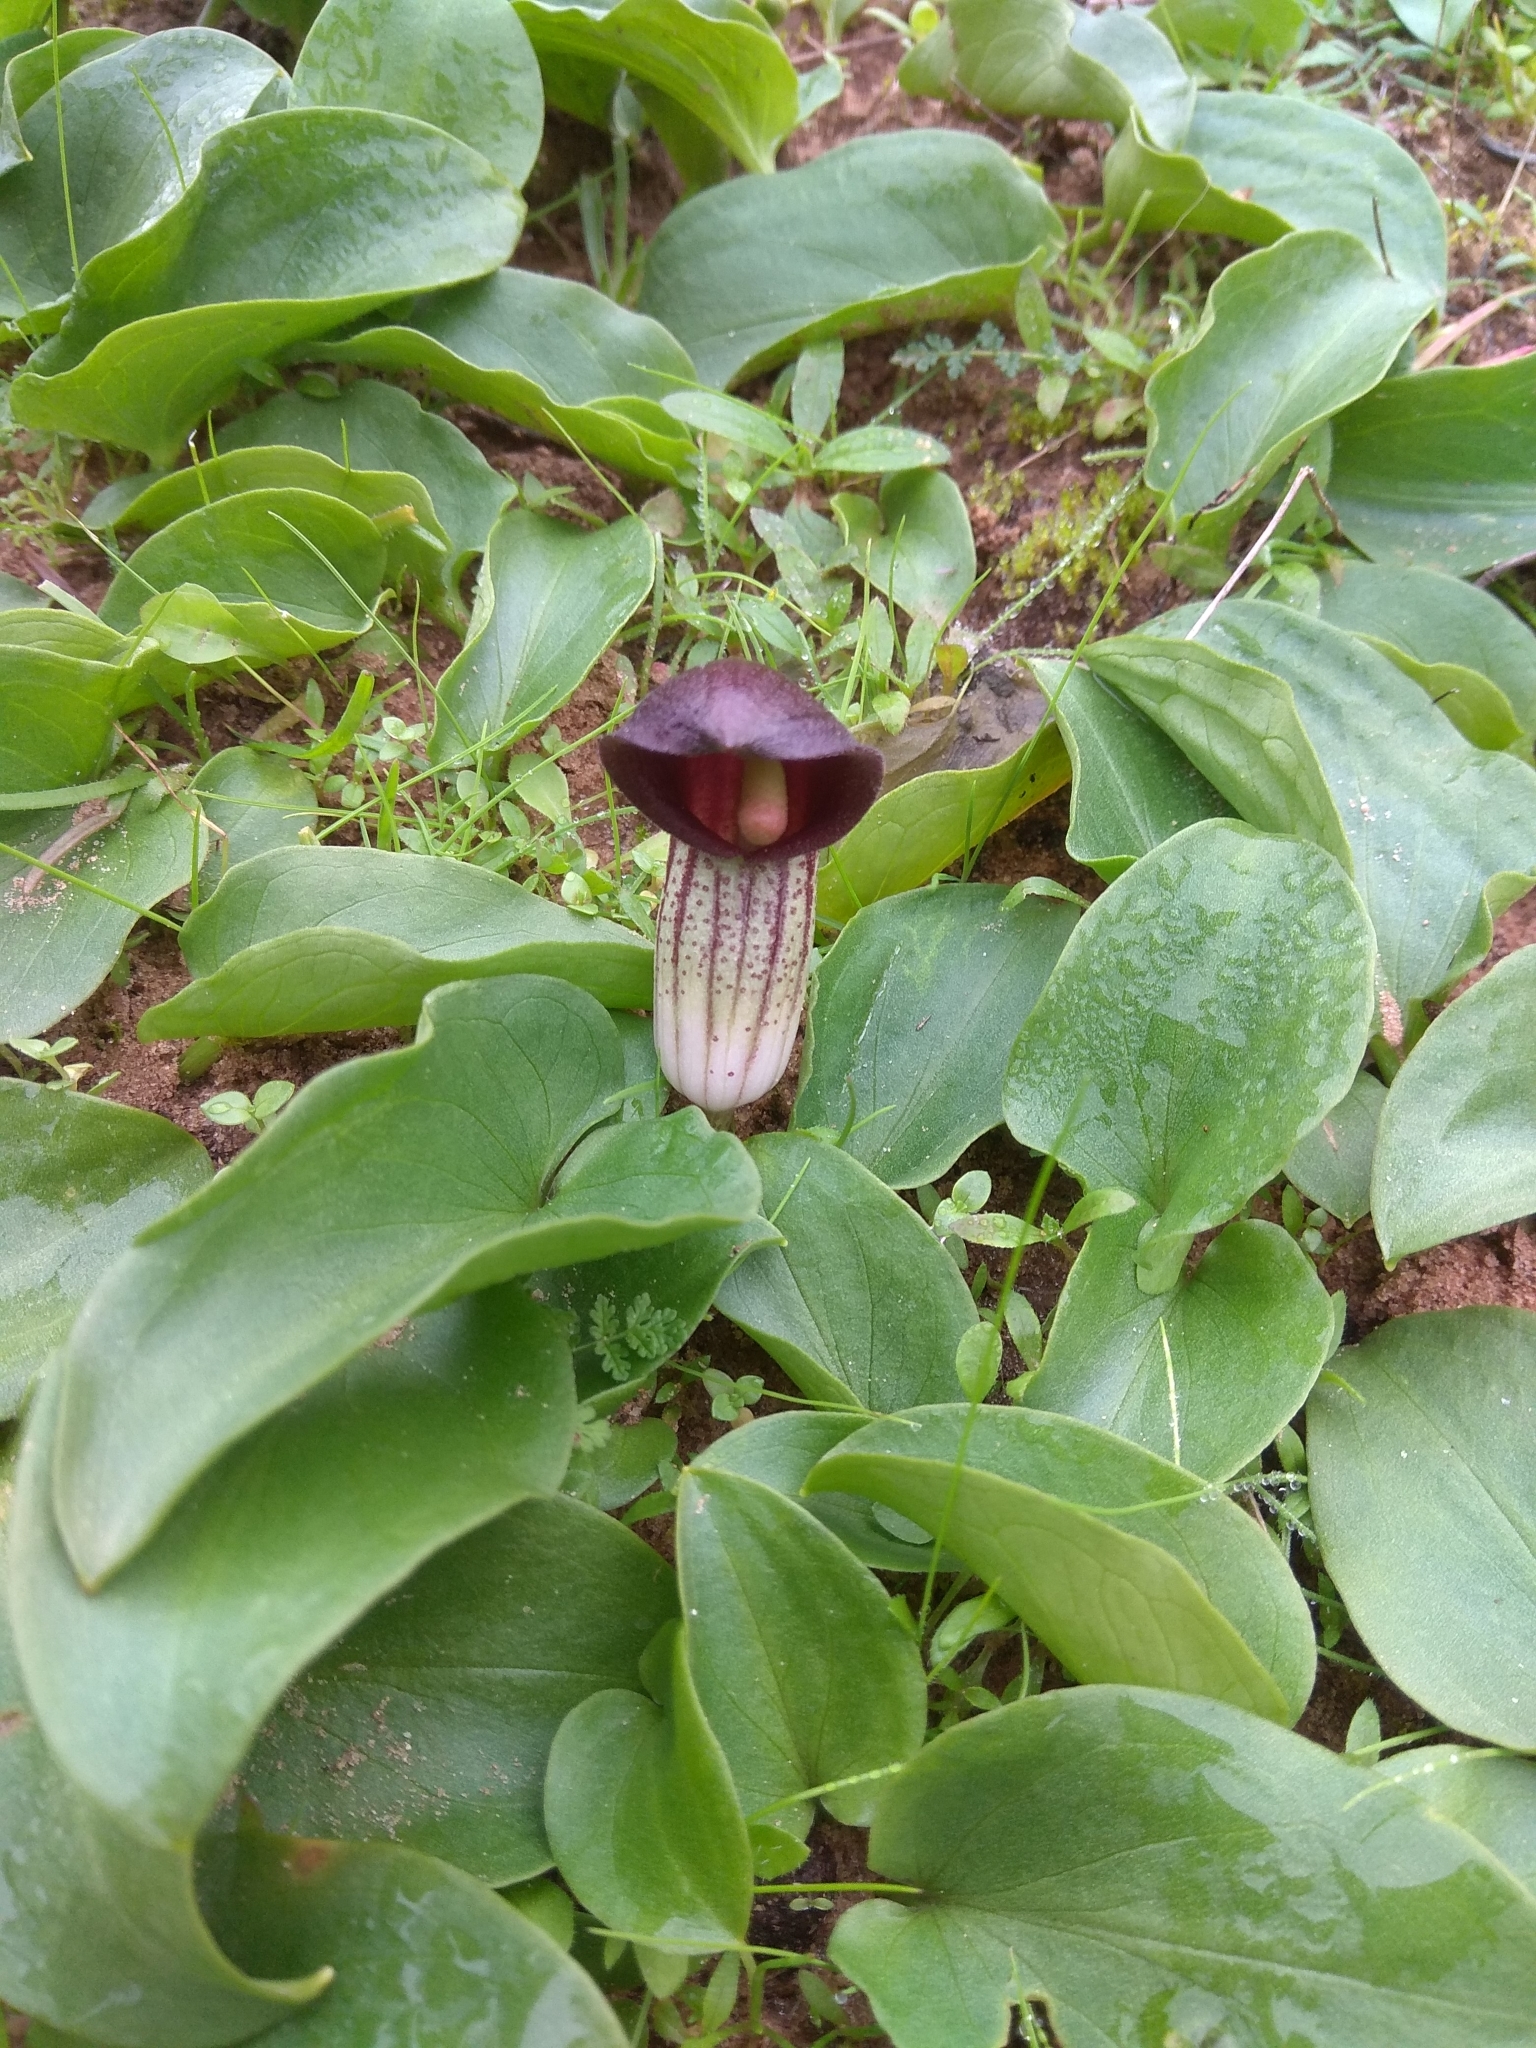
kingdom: Plantae
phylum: Tracheophyta
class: Liliopsida
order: Alismatales
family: Araceae
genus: Arisarum
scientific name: Arisarum simorrhinum
